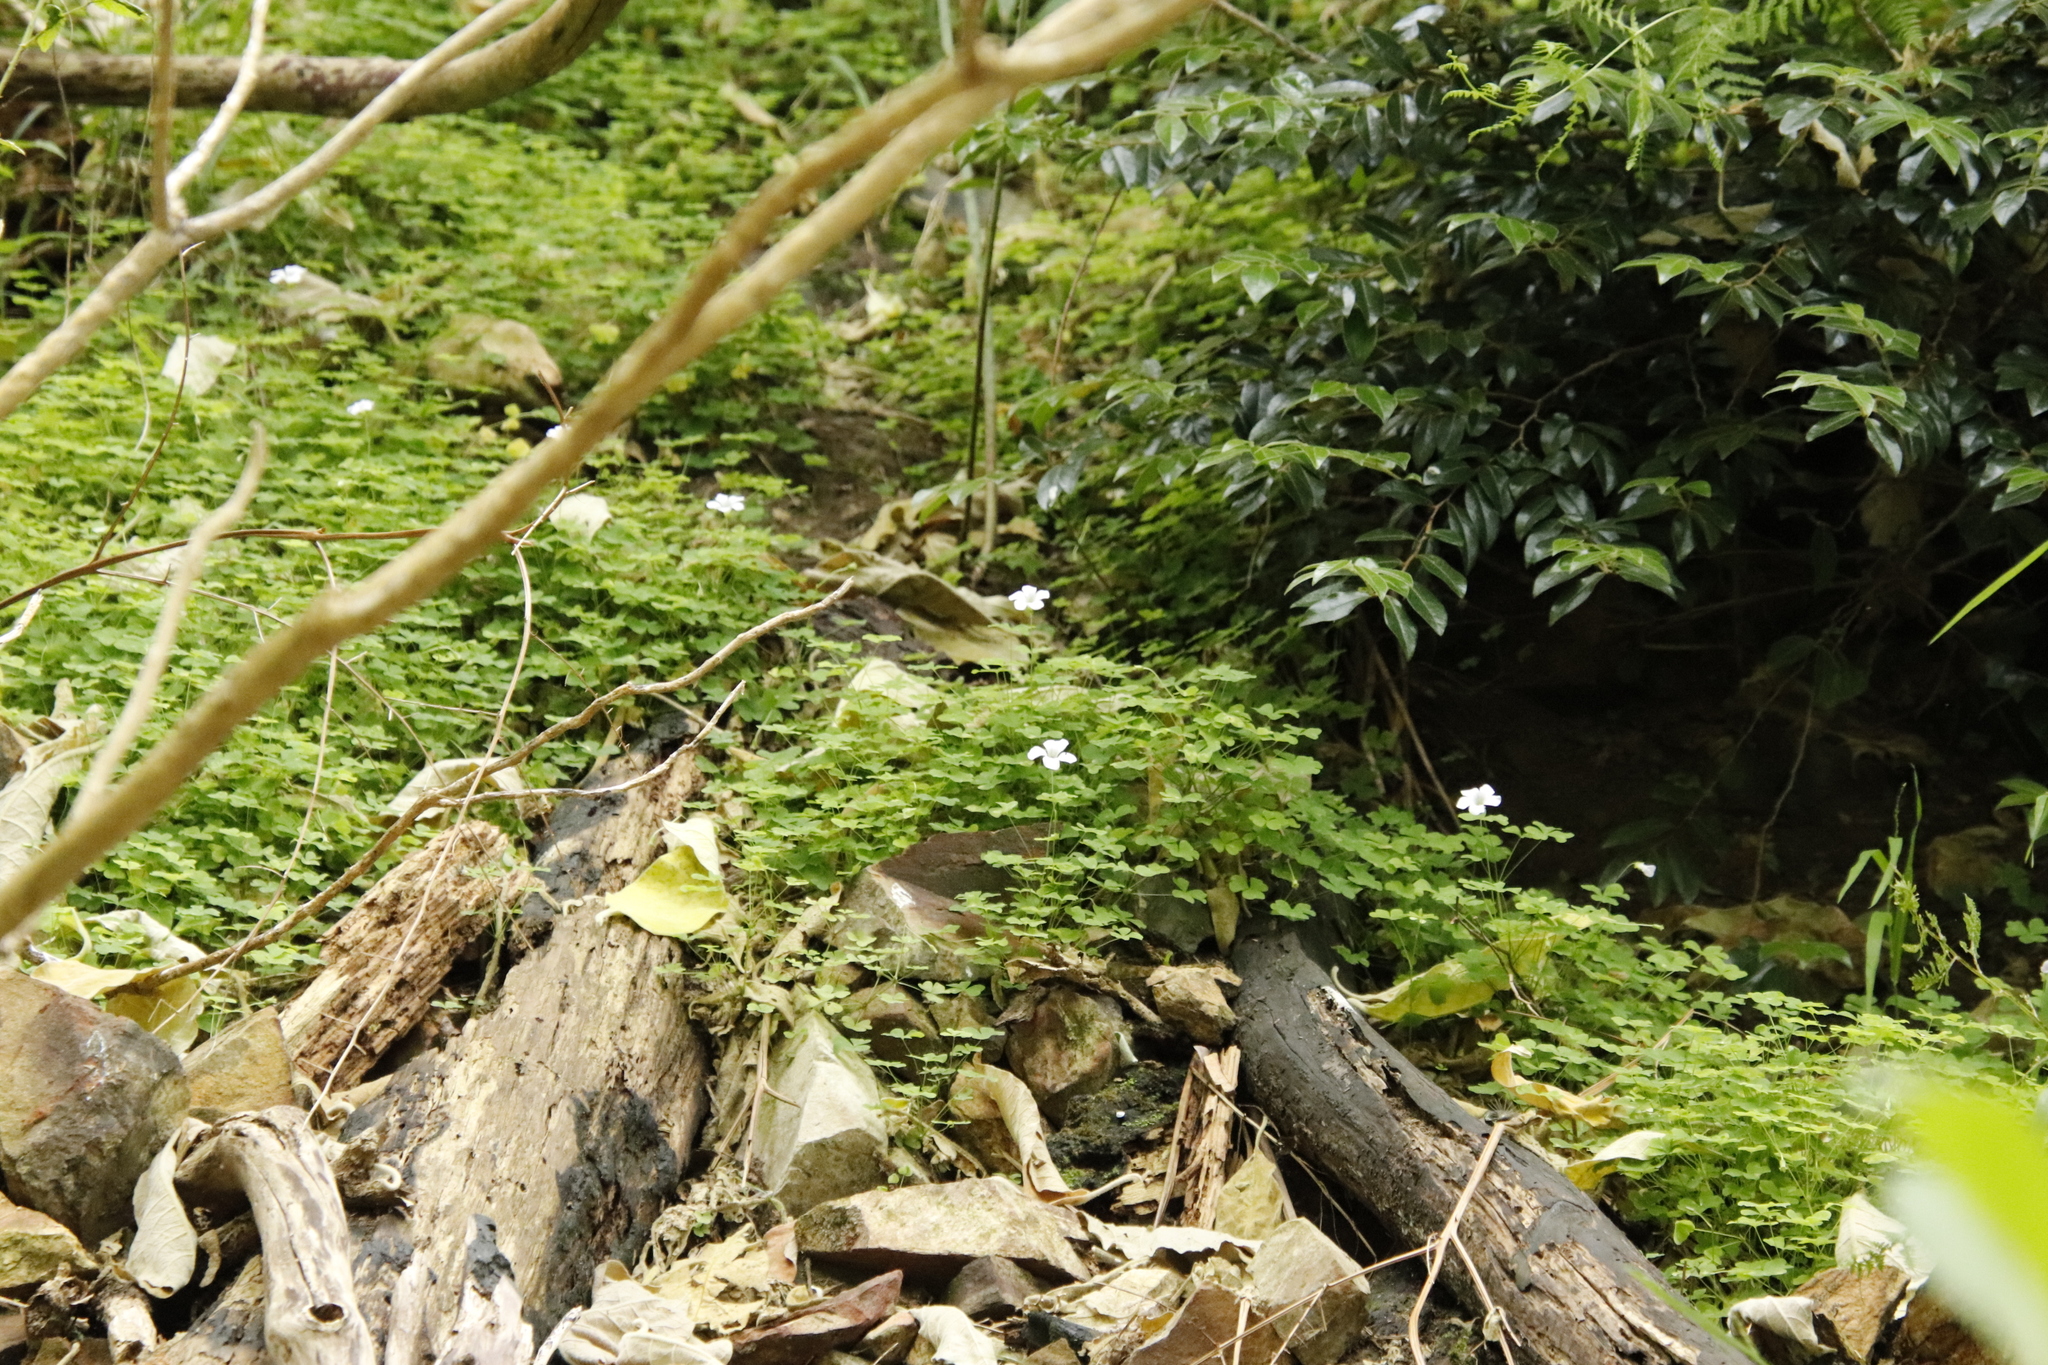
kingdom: Plantae
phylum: Tracheophyta
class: Magnoliopsida
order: Oxalidales
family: Oxalidaceae
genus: Oxalis
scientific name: Oxalis incarnata
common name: Pale pink-sorrel
